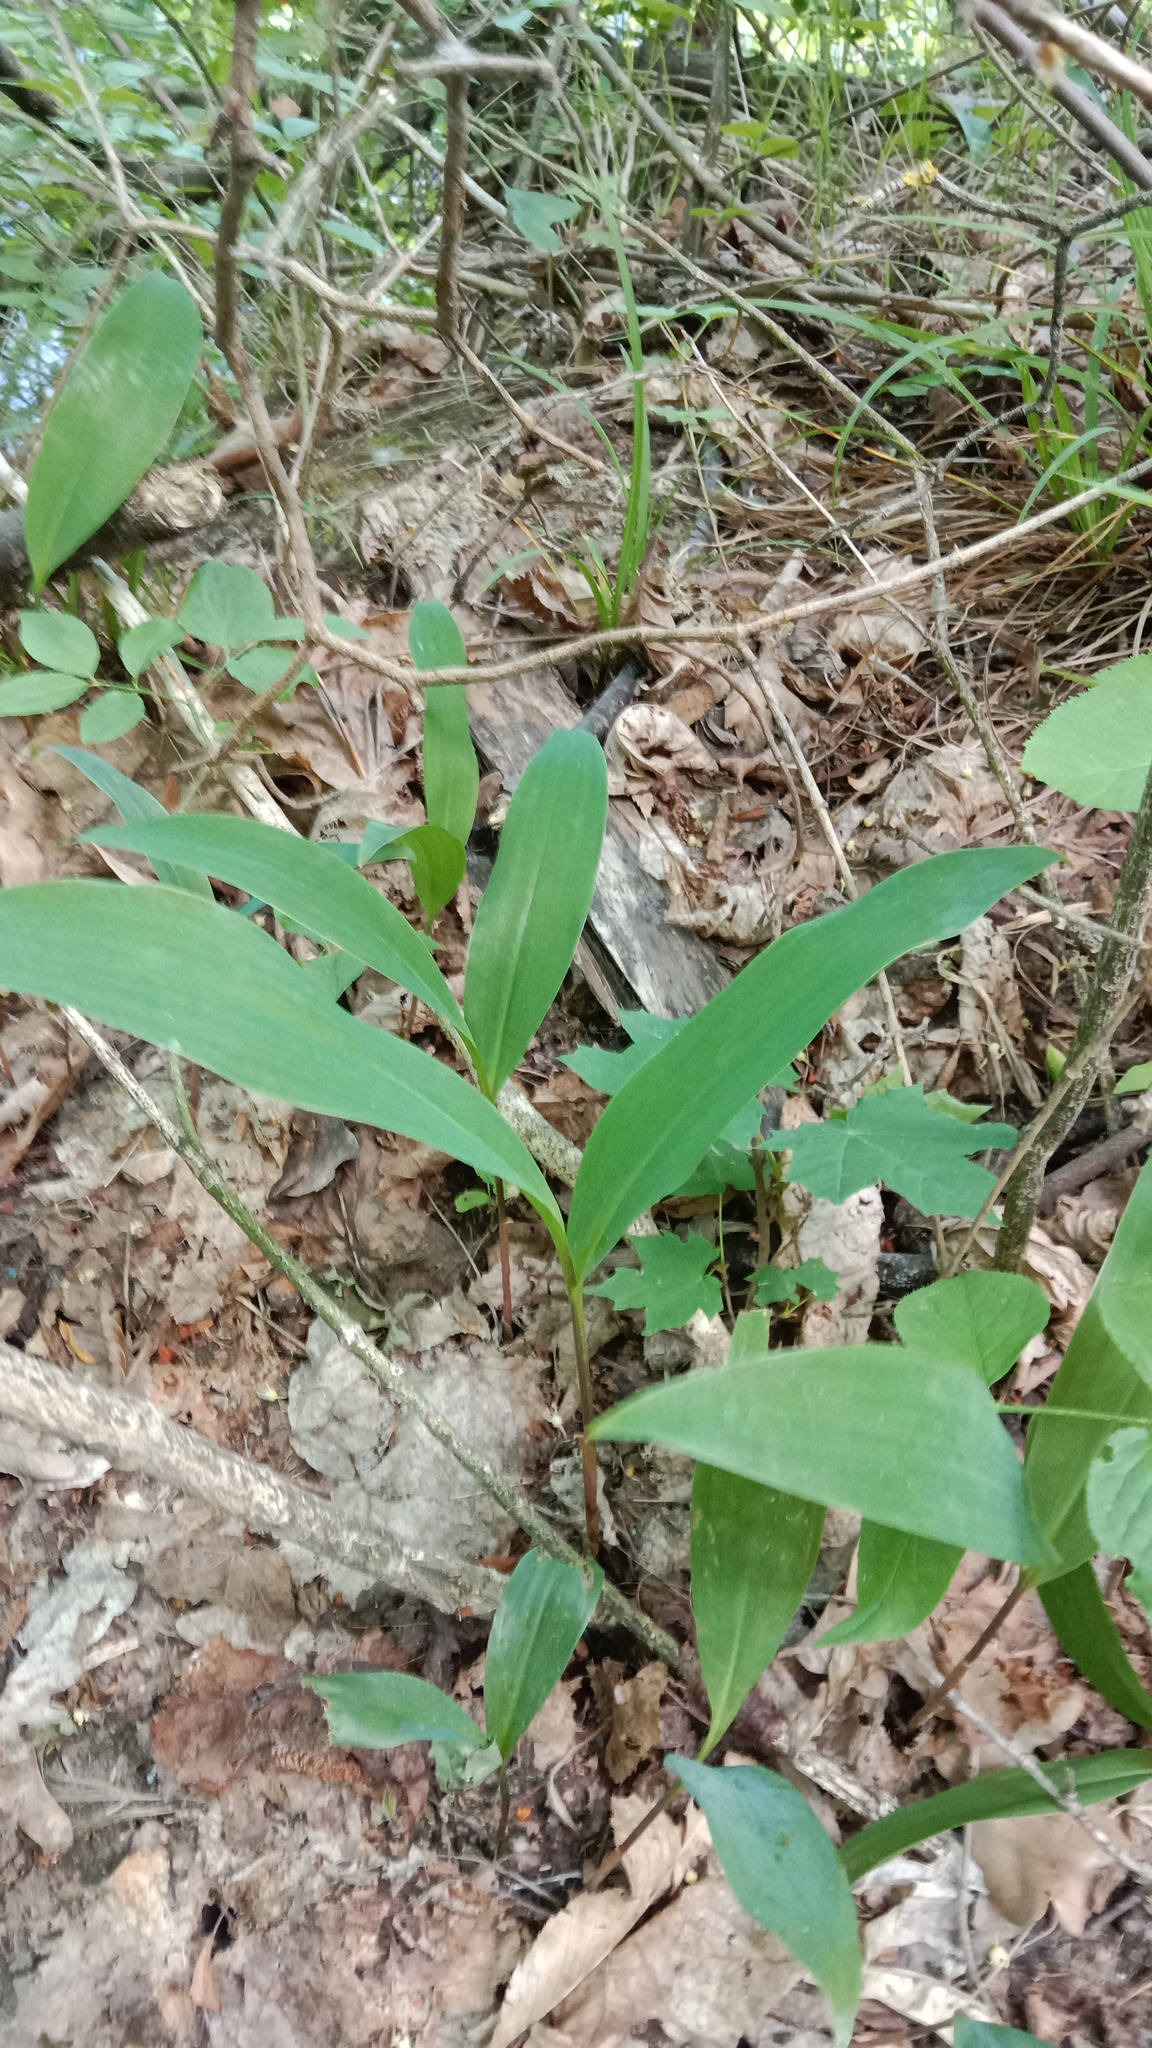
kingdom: Plantae
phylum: Tracheophyta
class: Liliopsida
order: Asparagales
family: Asparagaceae
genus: Convallaria
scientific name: Convallaria majalis
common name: Lily-of-the-valley
